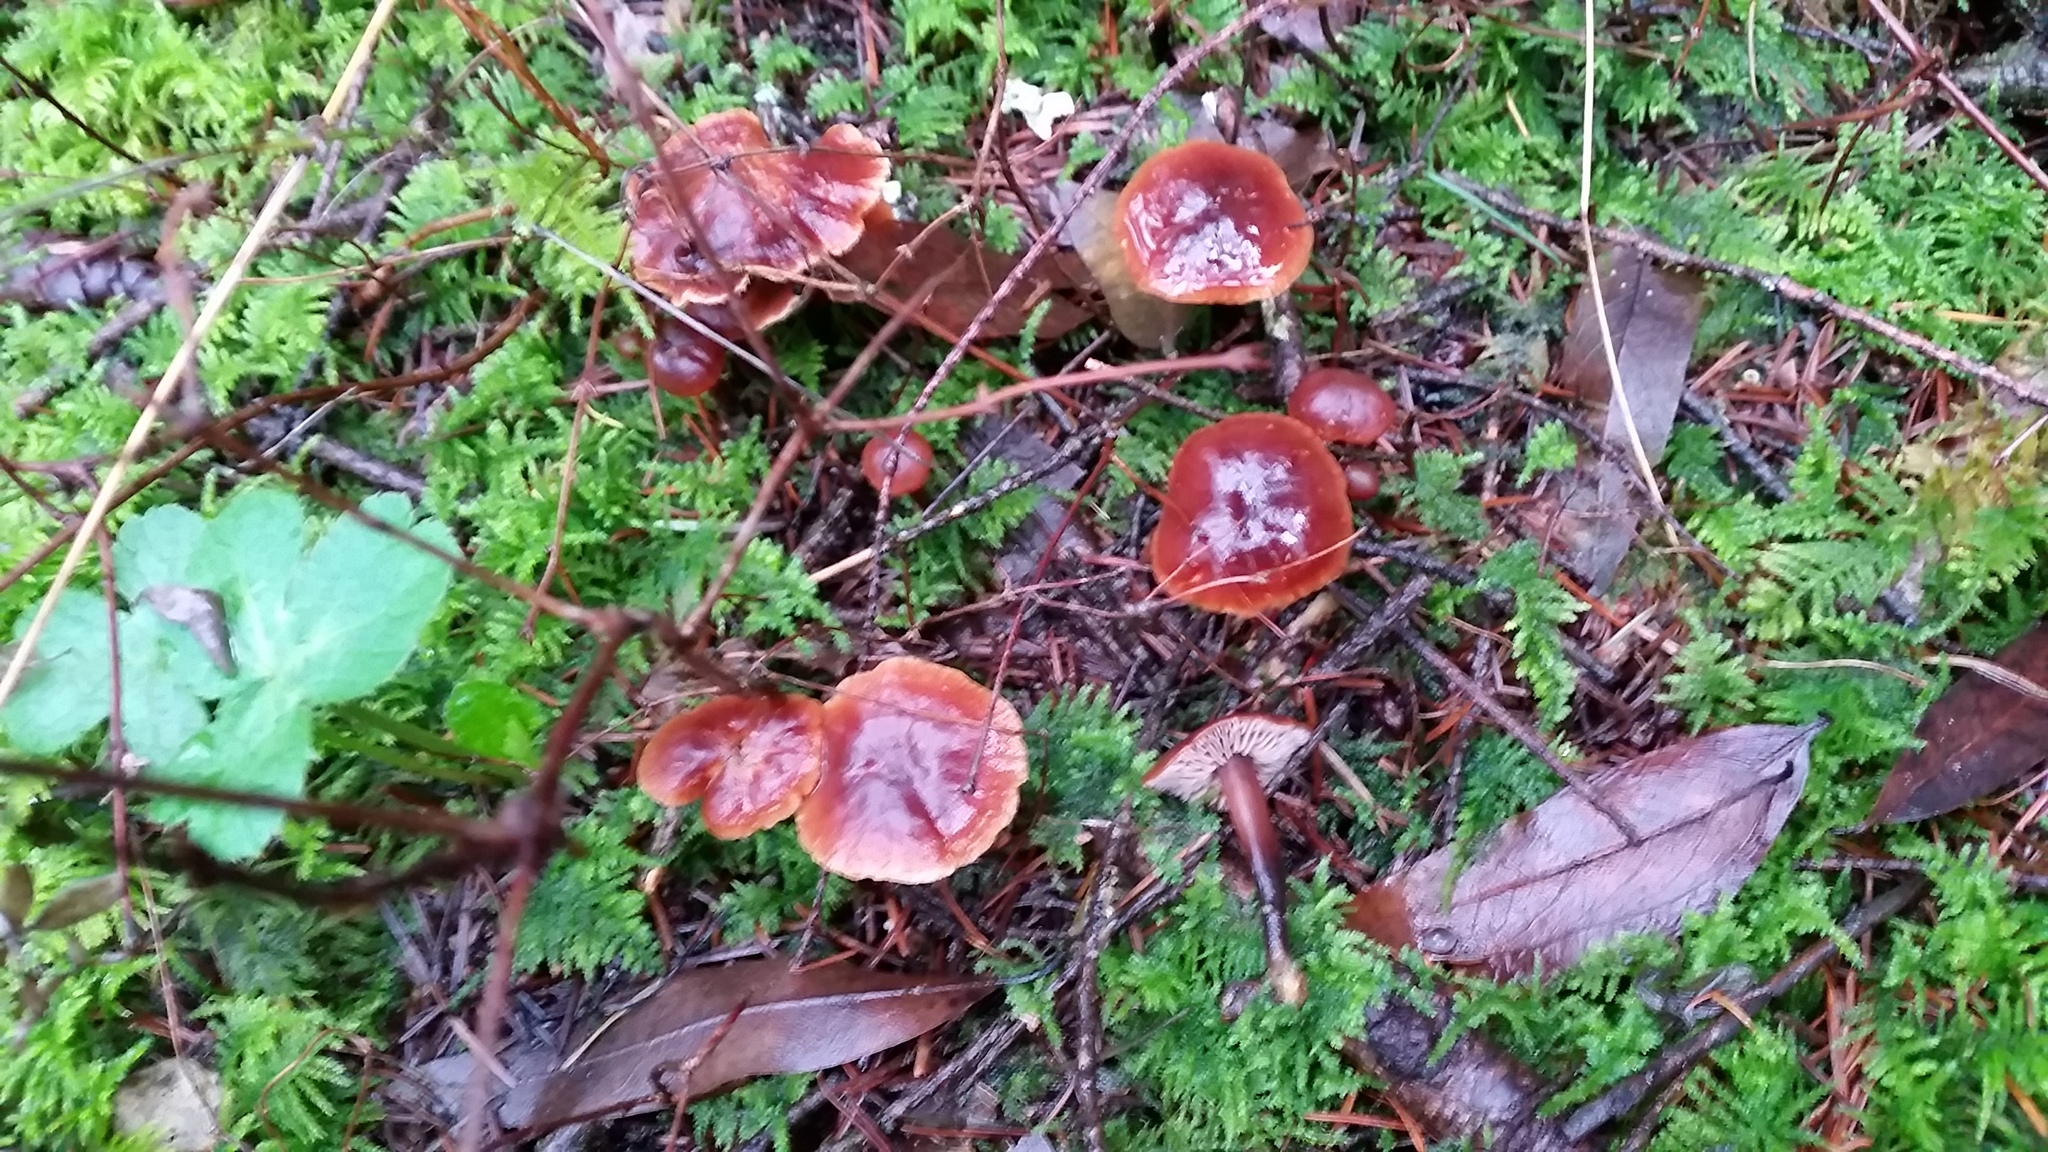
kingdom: Fungi
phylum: Basidiomycota
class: Agaricomycetes
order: Agaricales
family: Omphalotaceae
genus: Gymnopus
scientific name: Gymnopus brassicolens
